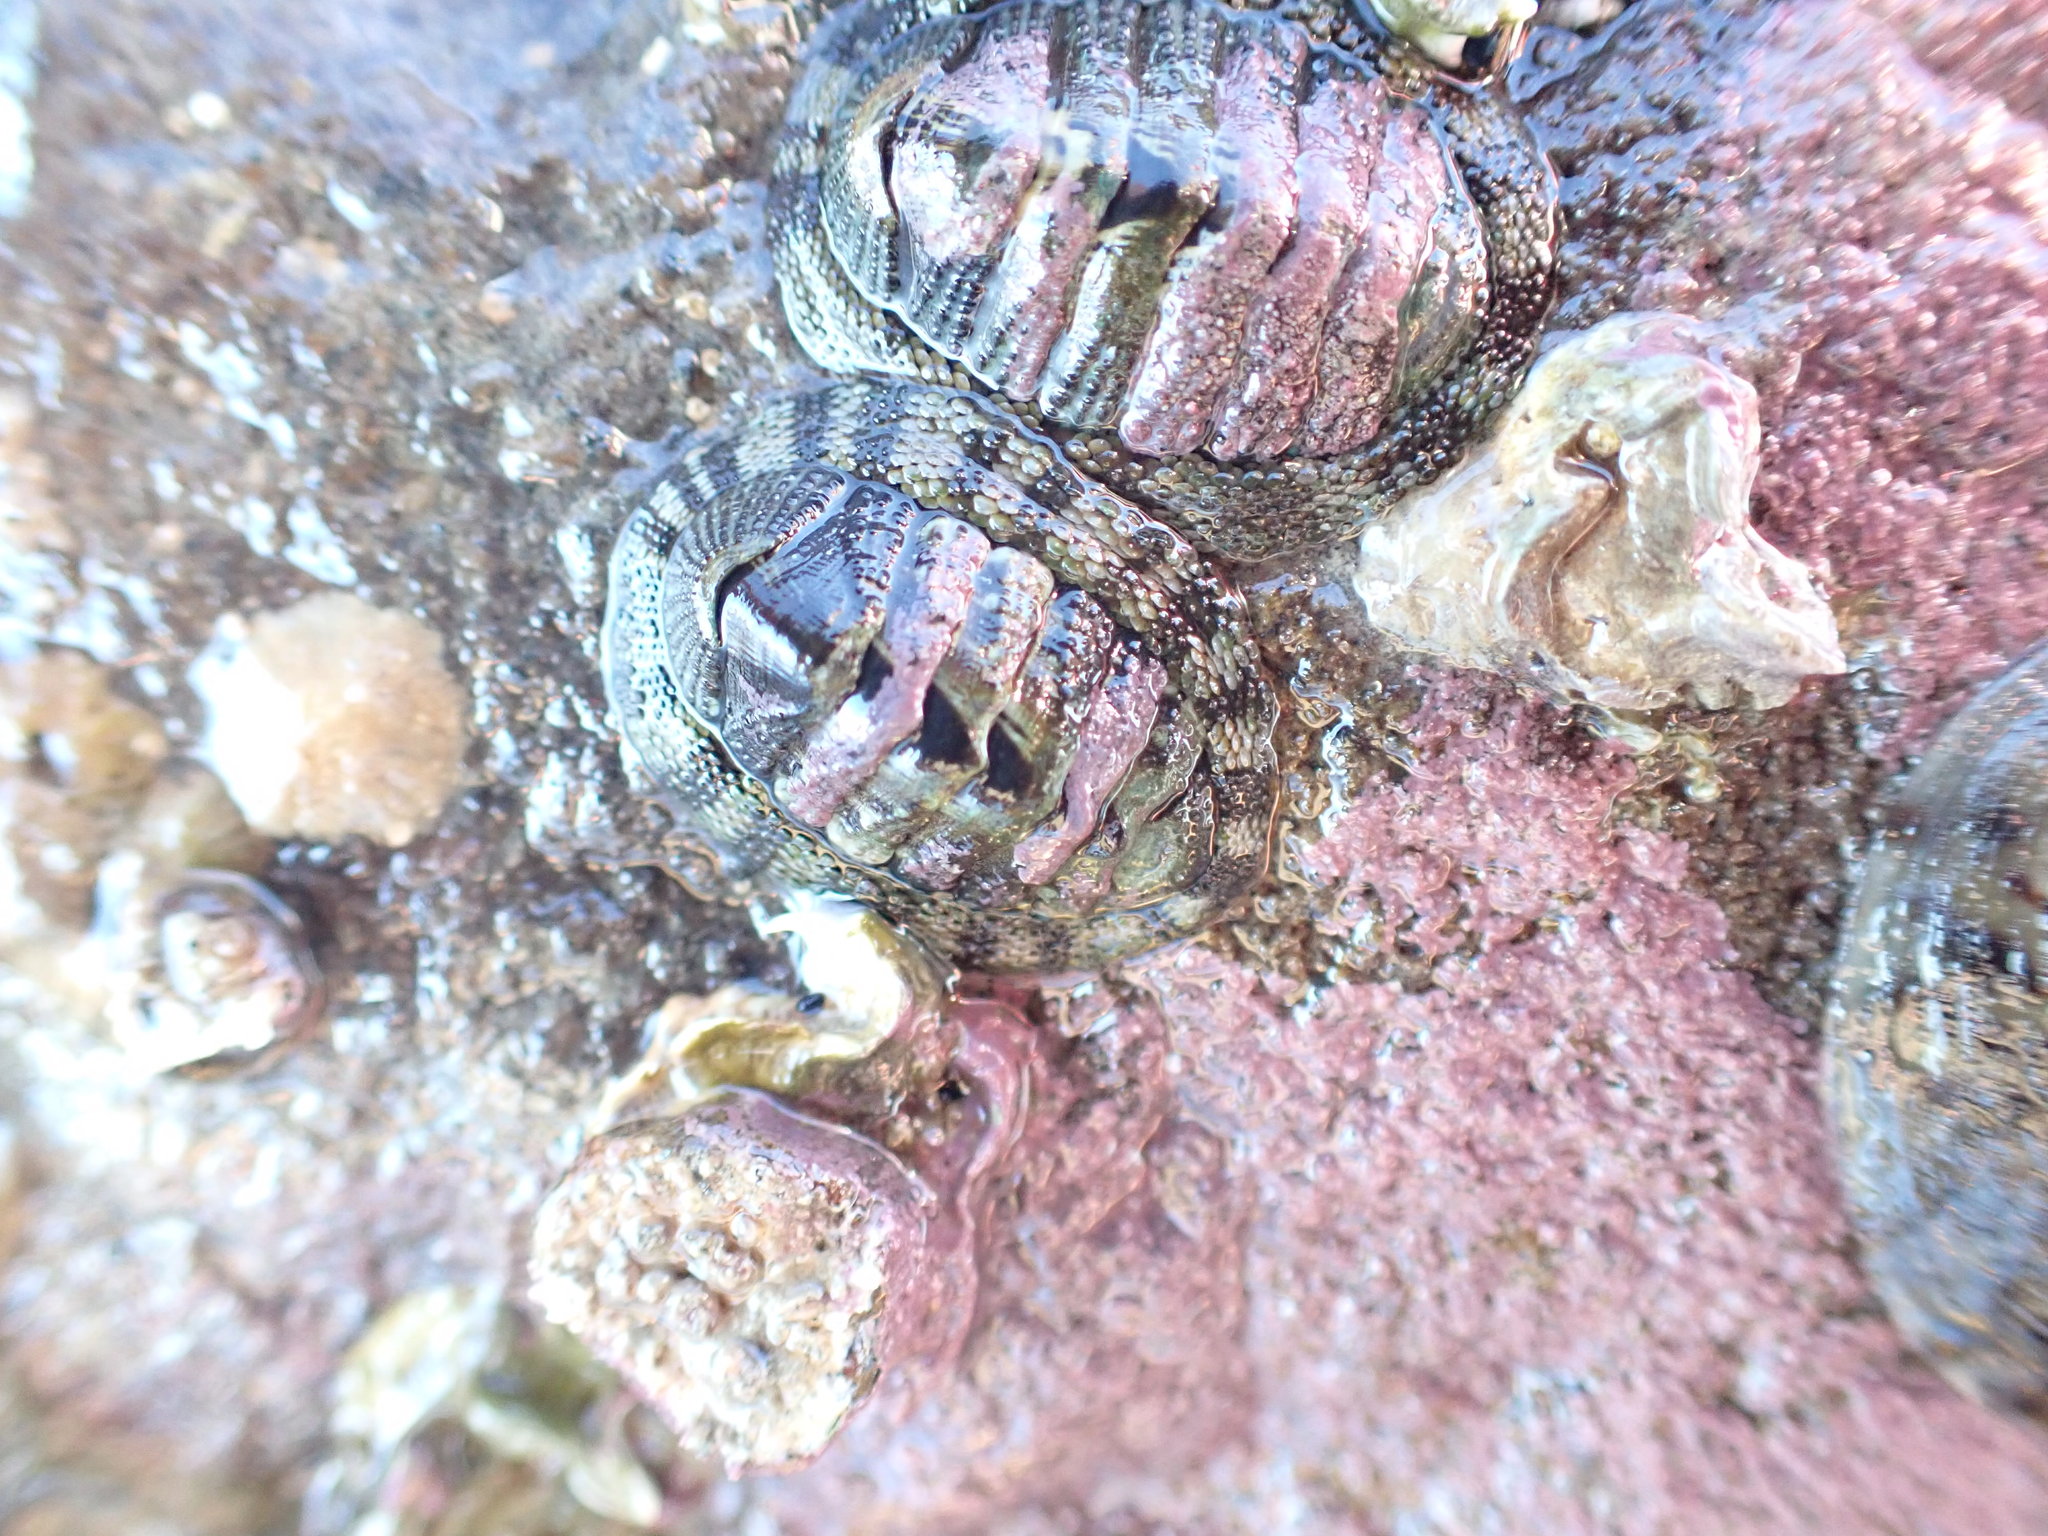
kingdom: Animalia
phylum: Mollusca
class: Polyplacophora
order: Chitonida
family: Chitonidae
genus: Sypharochiton
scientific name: Sypharochiton pelliserpentis
